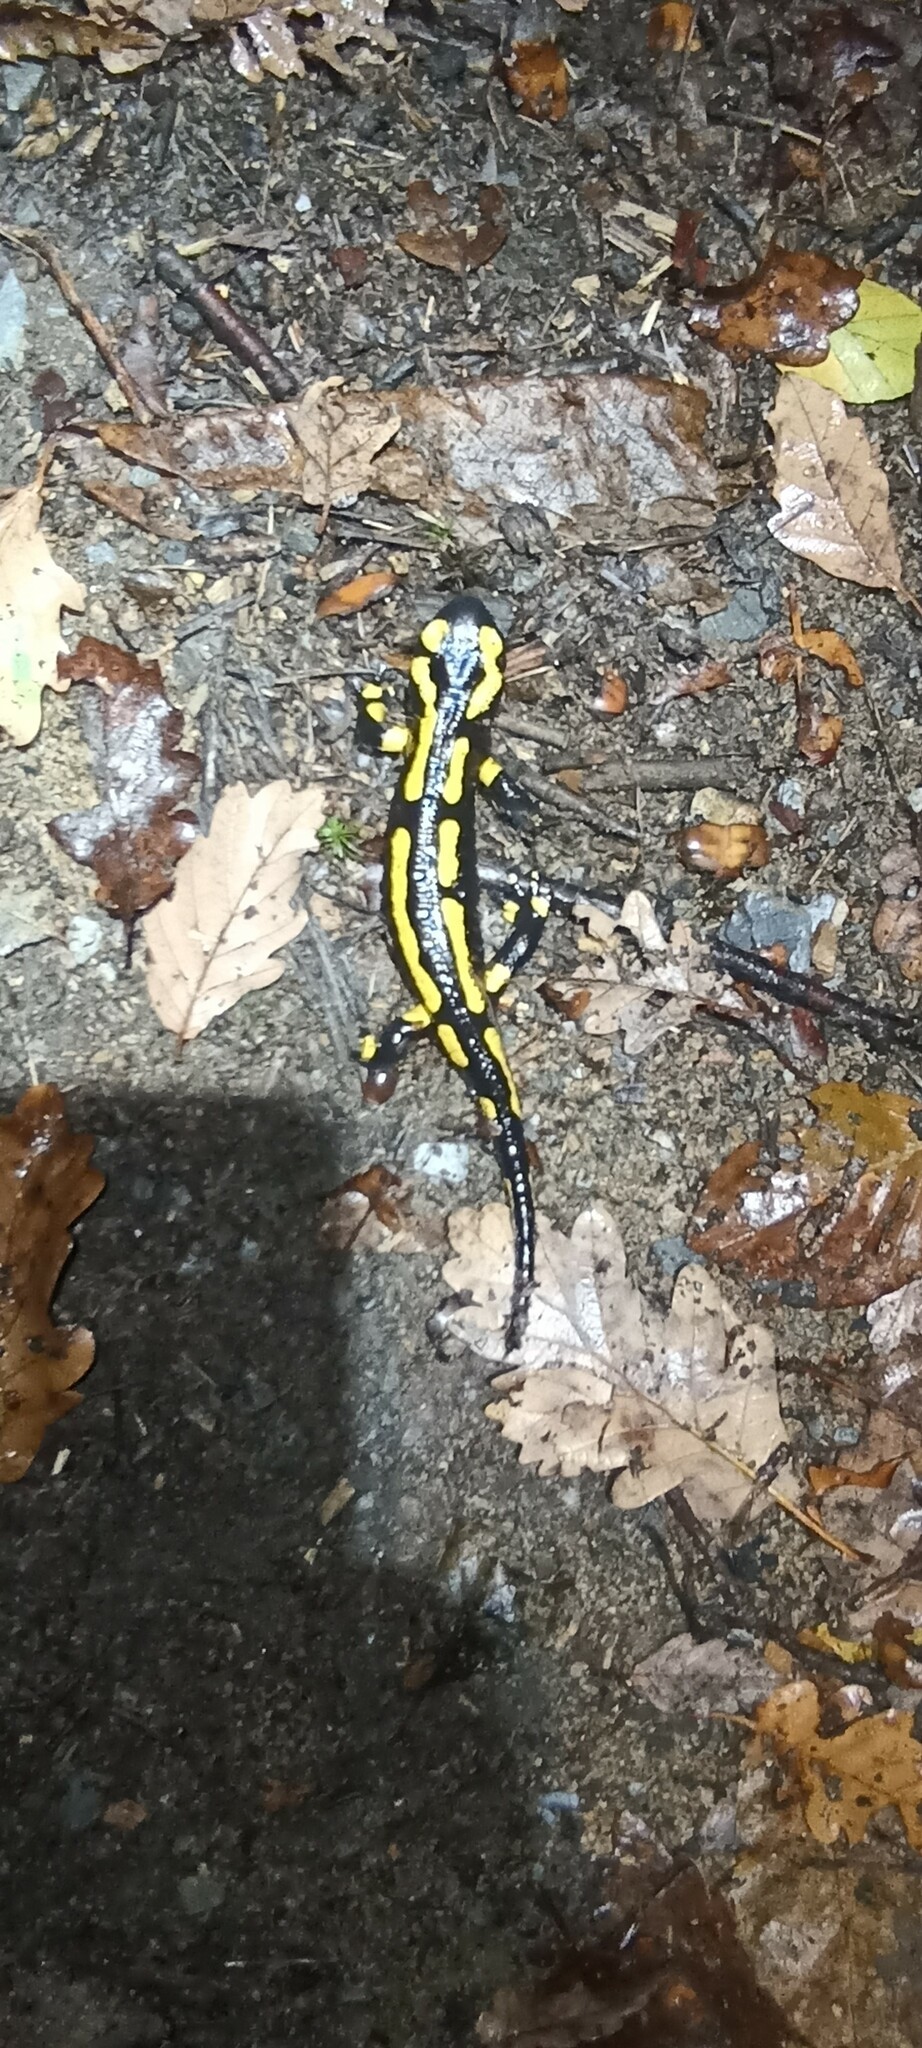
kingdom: Animalia
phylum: Chordata
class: Amphibia
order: Caudata
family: Salamandridae
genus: Salamandra
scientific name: Salamandra salamandra
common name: Fire salamander
